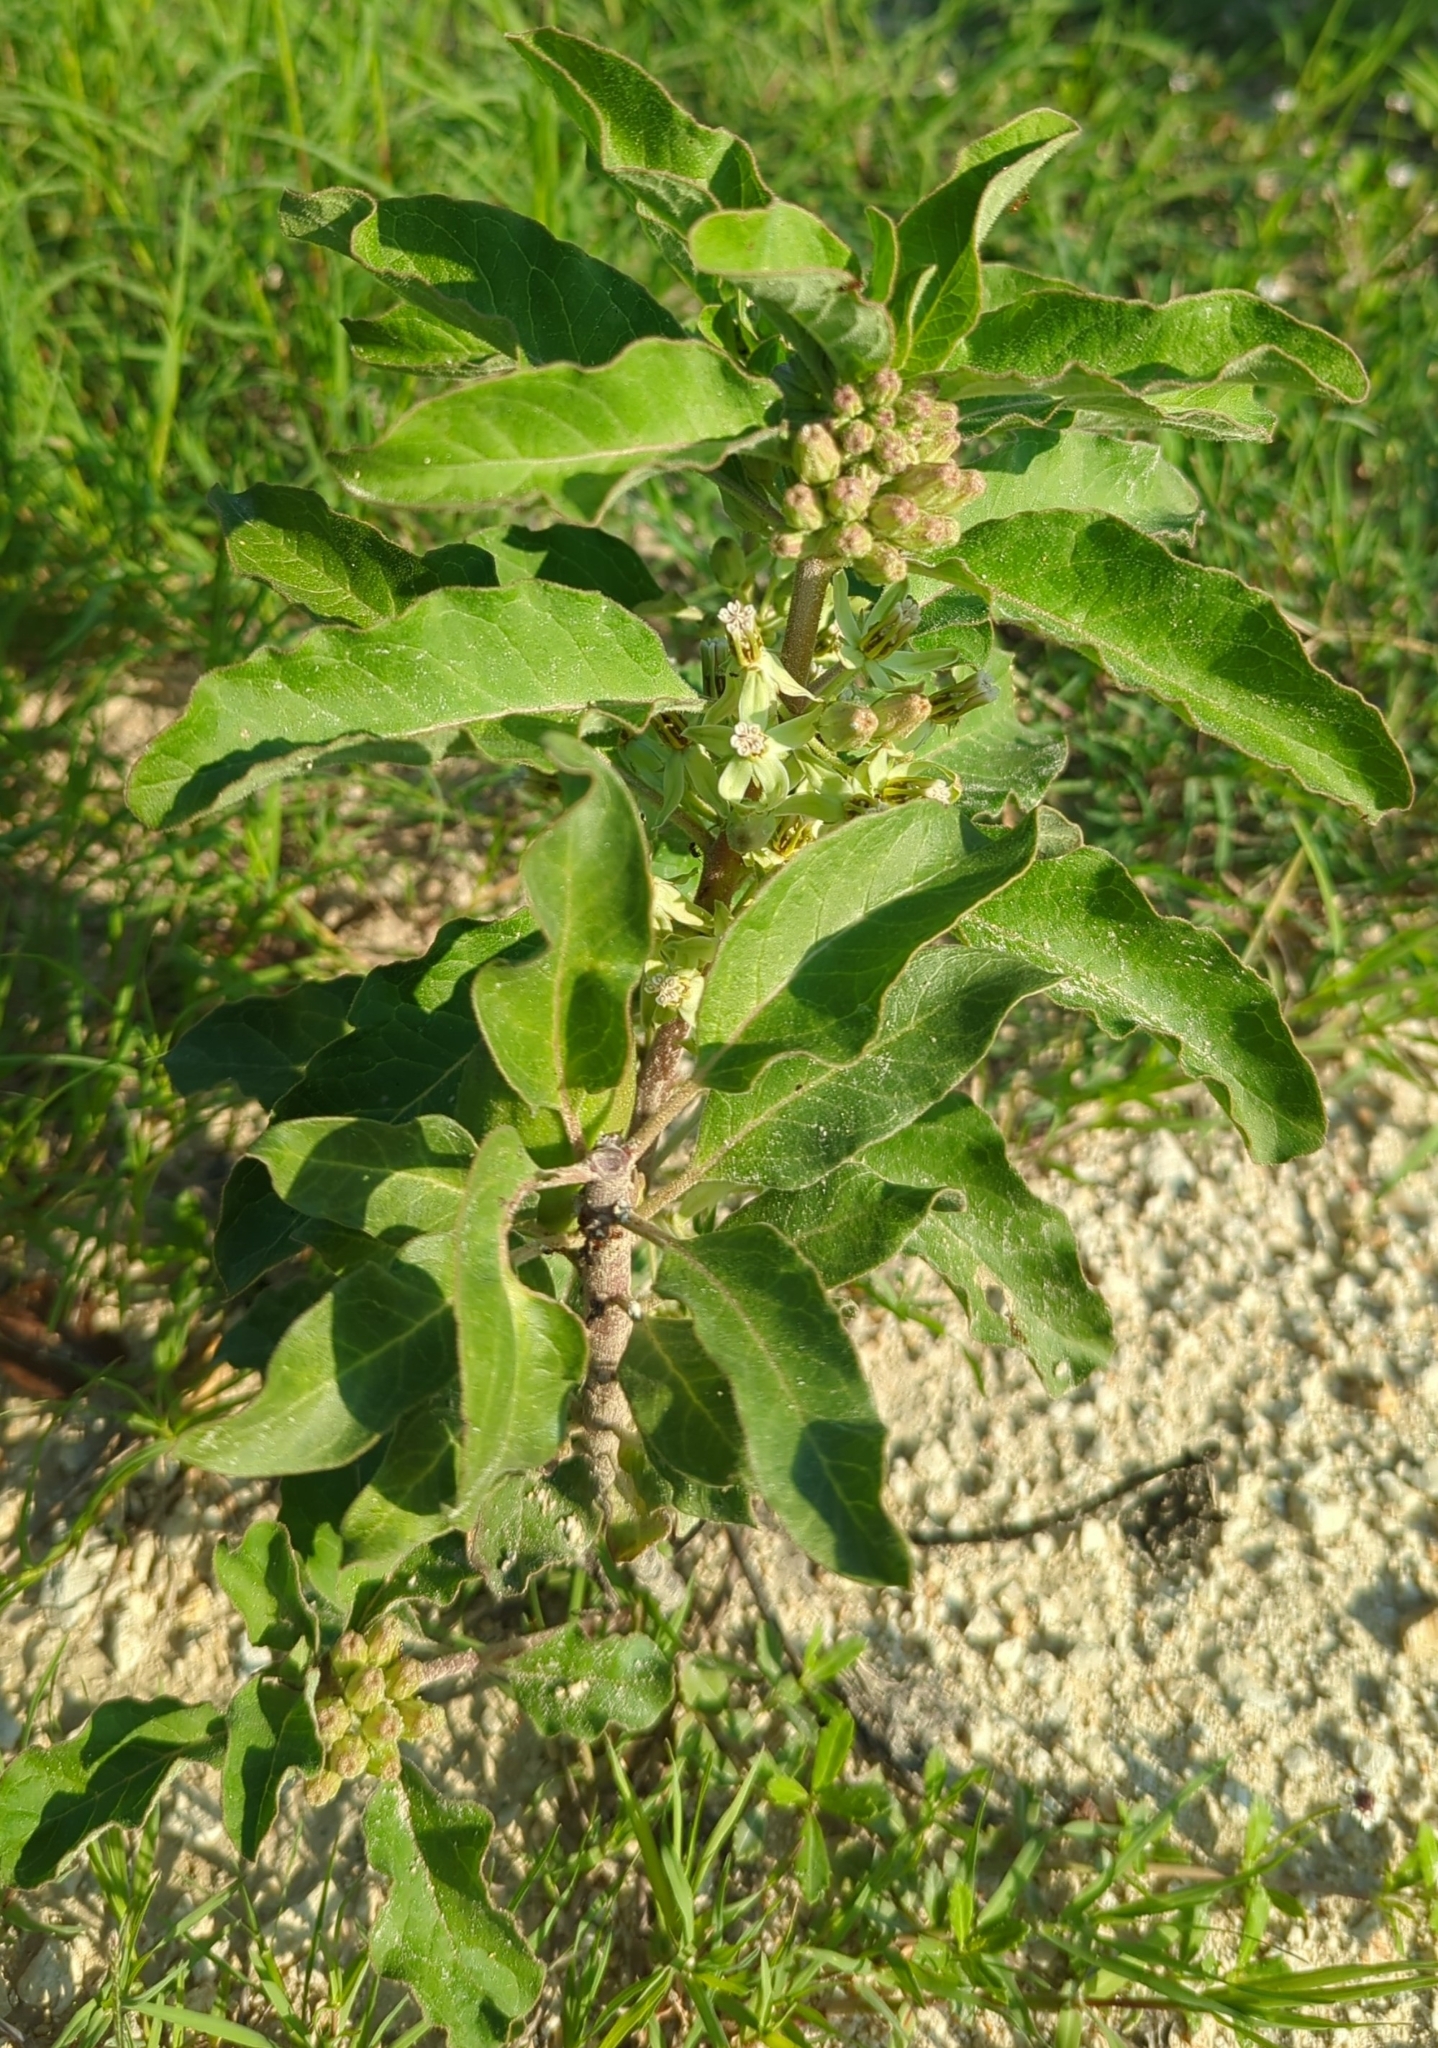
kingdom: Plantae
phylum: Tracheophyta
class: Magnoliopsida
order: Gentianales
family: Apocynaceae
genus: Asclepias
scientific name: Asclepias oenotheroides
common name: Zizotes milkweed
